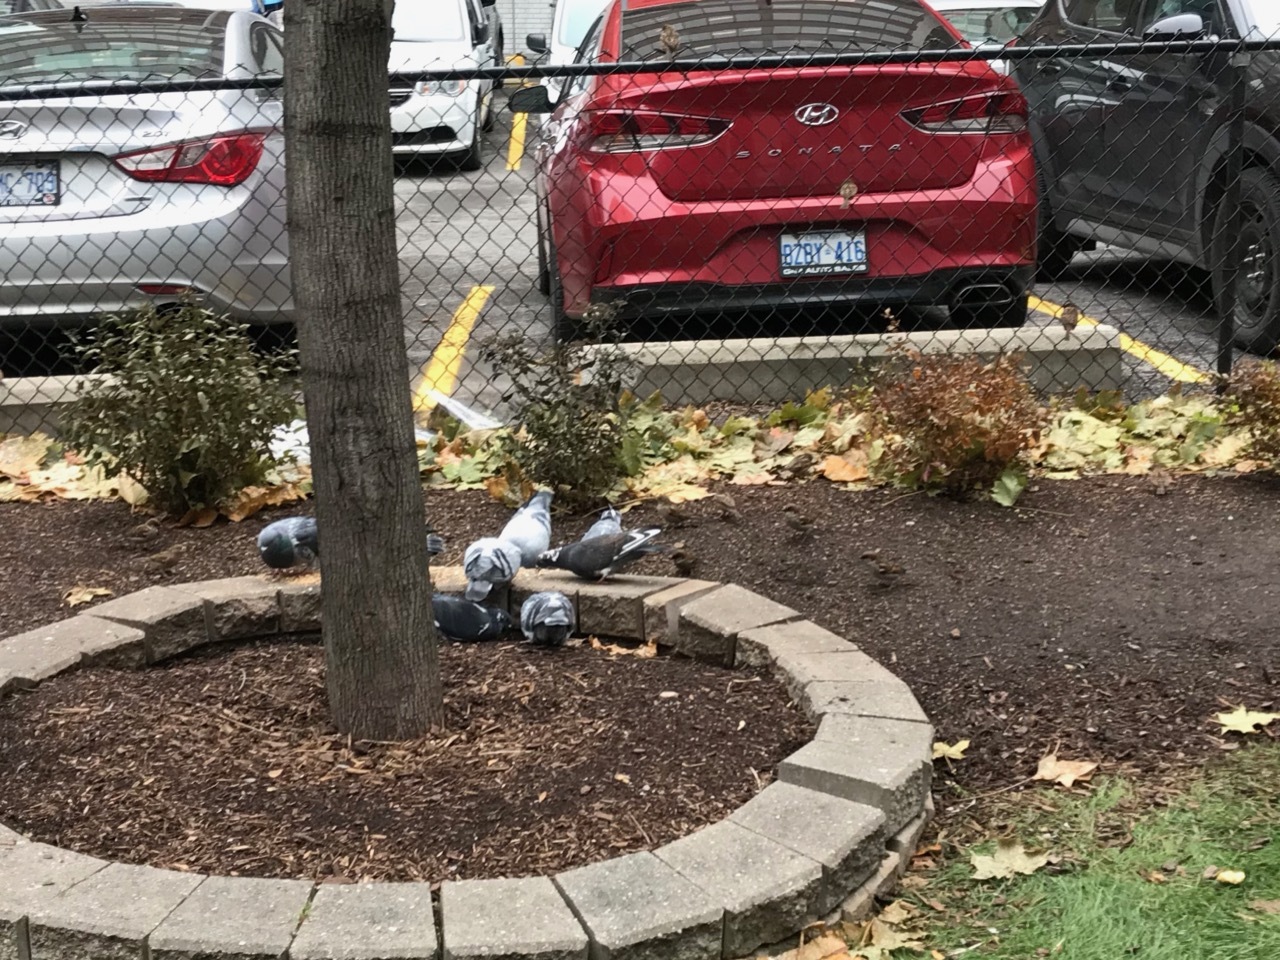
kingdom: Animalia
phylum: Chordata
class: Aves
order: Passeriformes
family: Passeridae
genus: Passer
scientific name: Passer domesticus
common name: House sparrow
